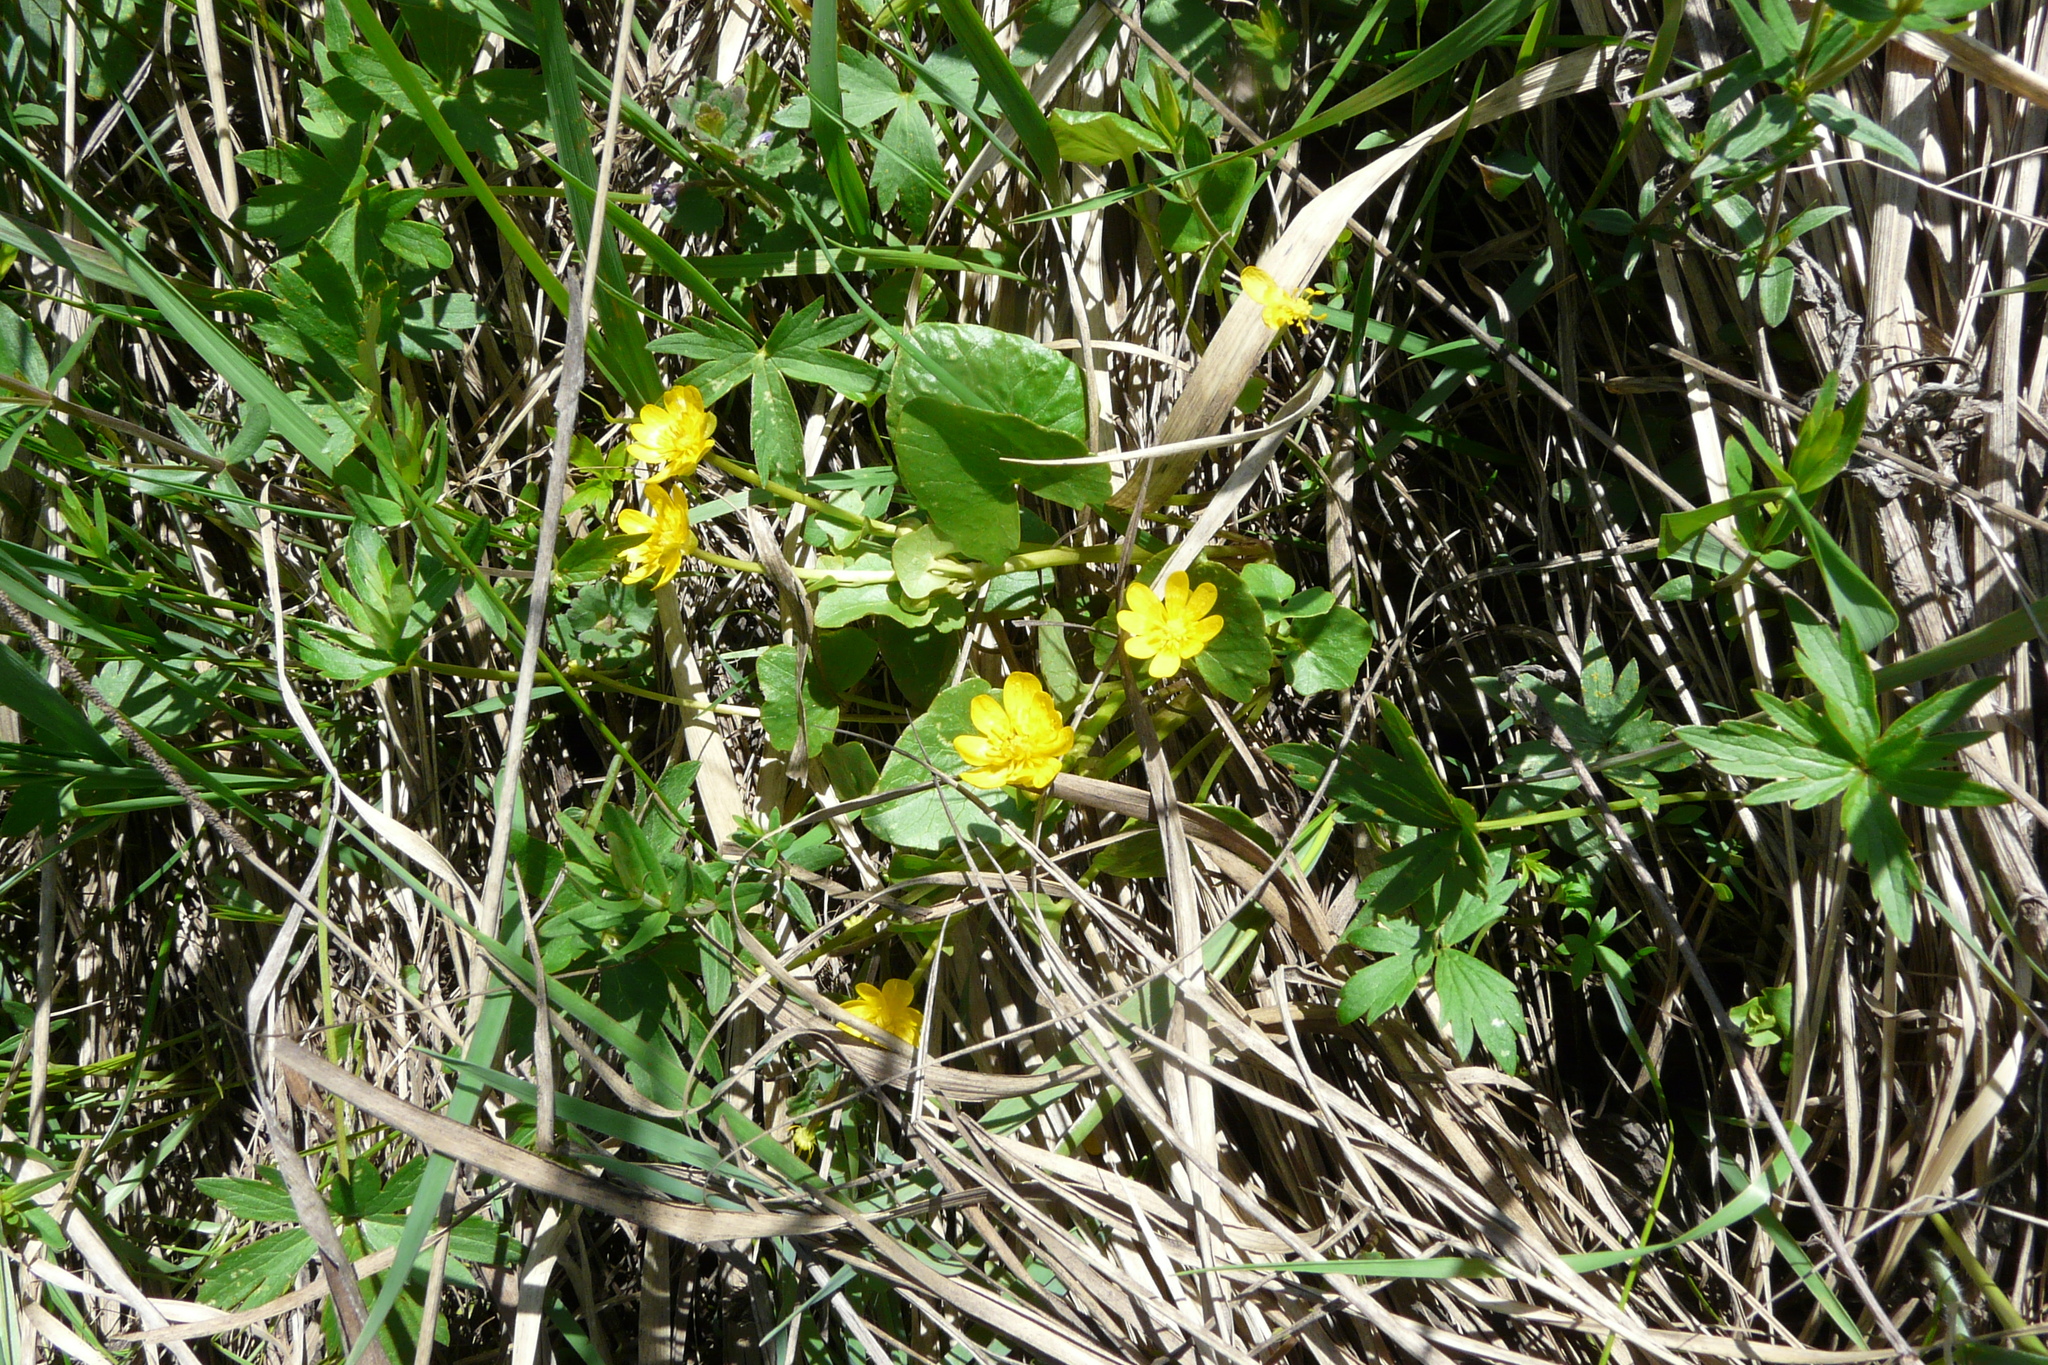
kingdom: Plantae
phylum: Tracheophyta
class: Magnoliopsida
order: Ranunculales
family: Ranunculaceae
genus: Ficaria
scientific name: Ficaria
